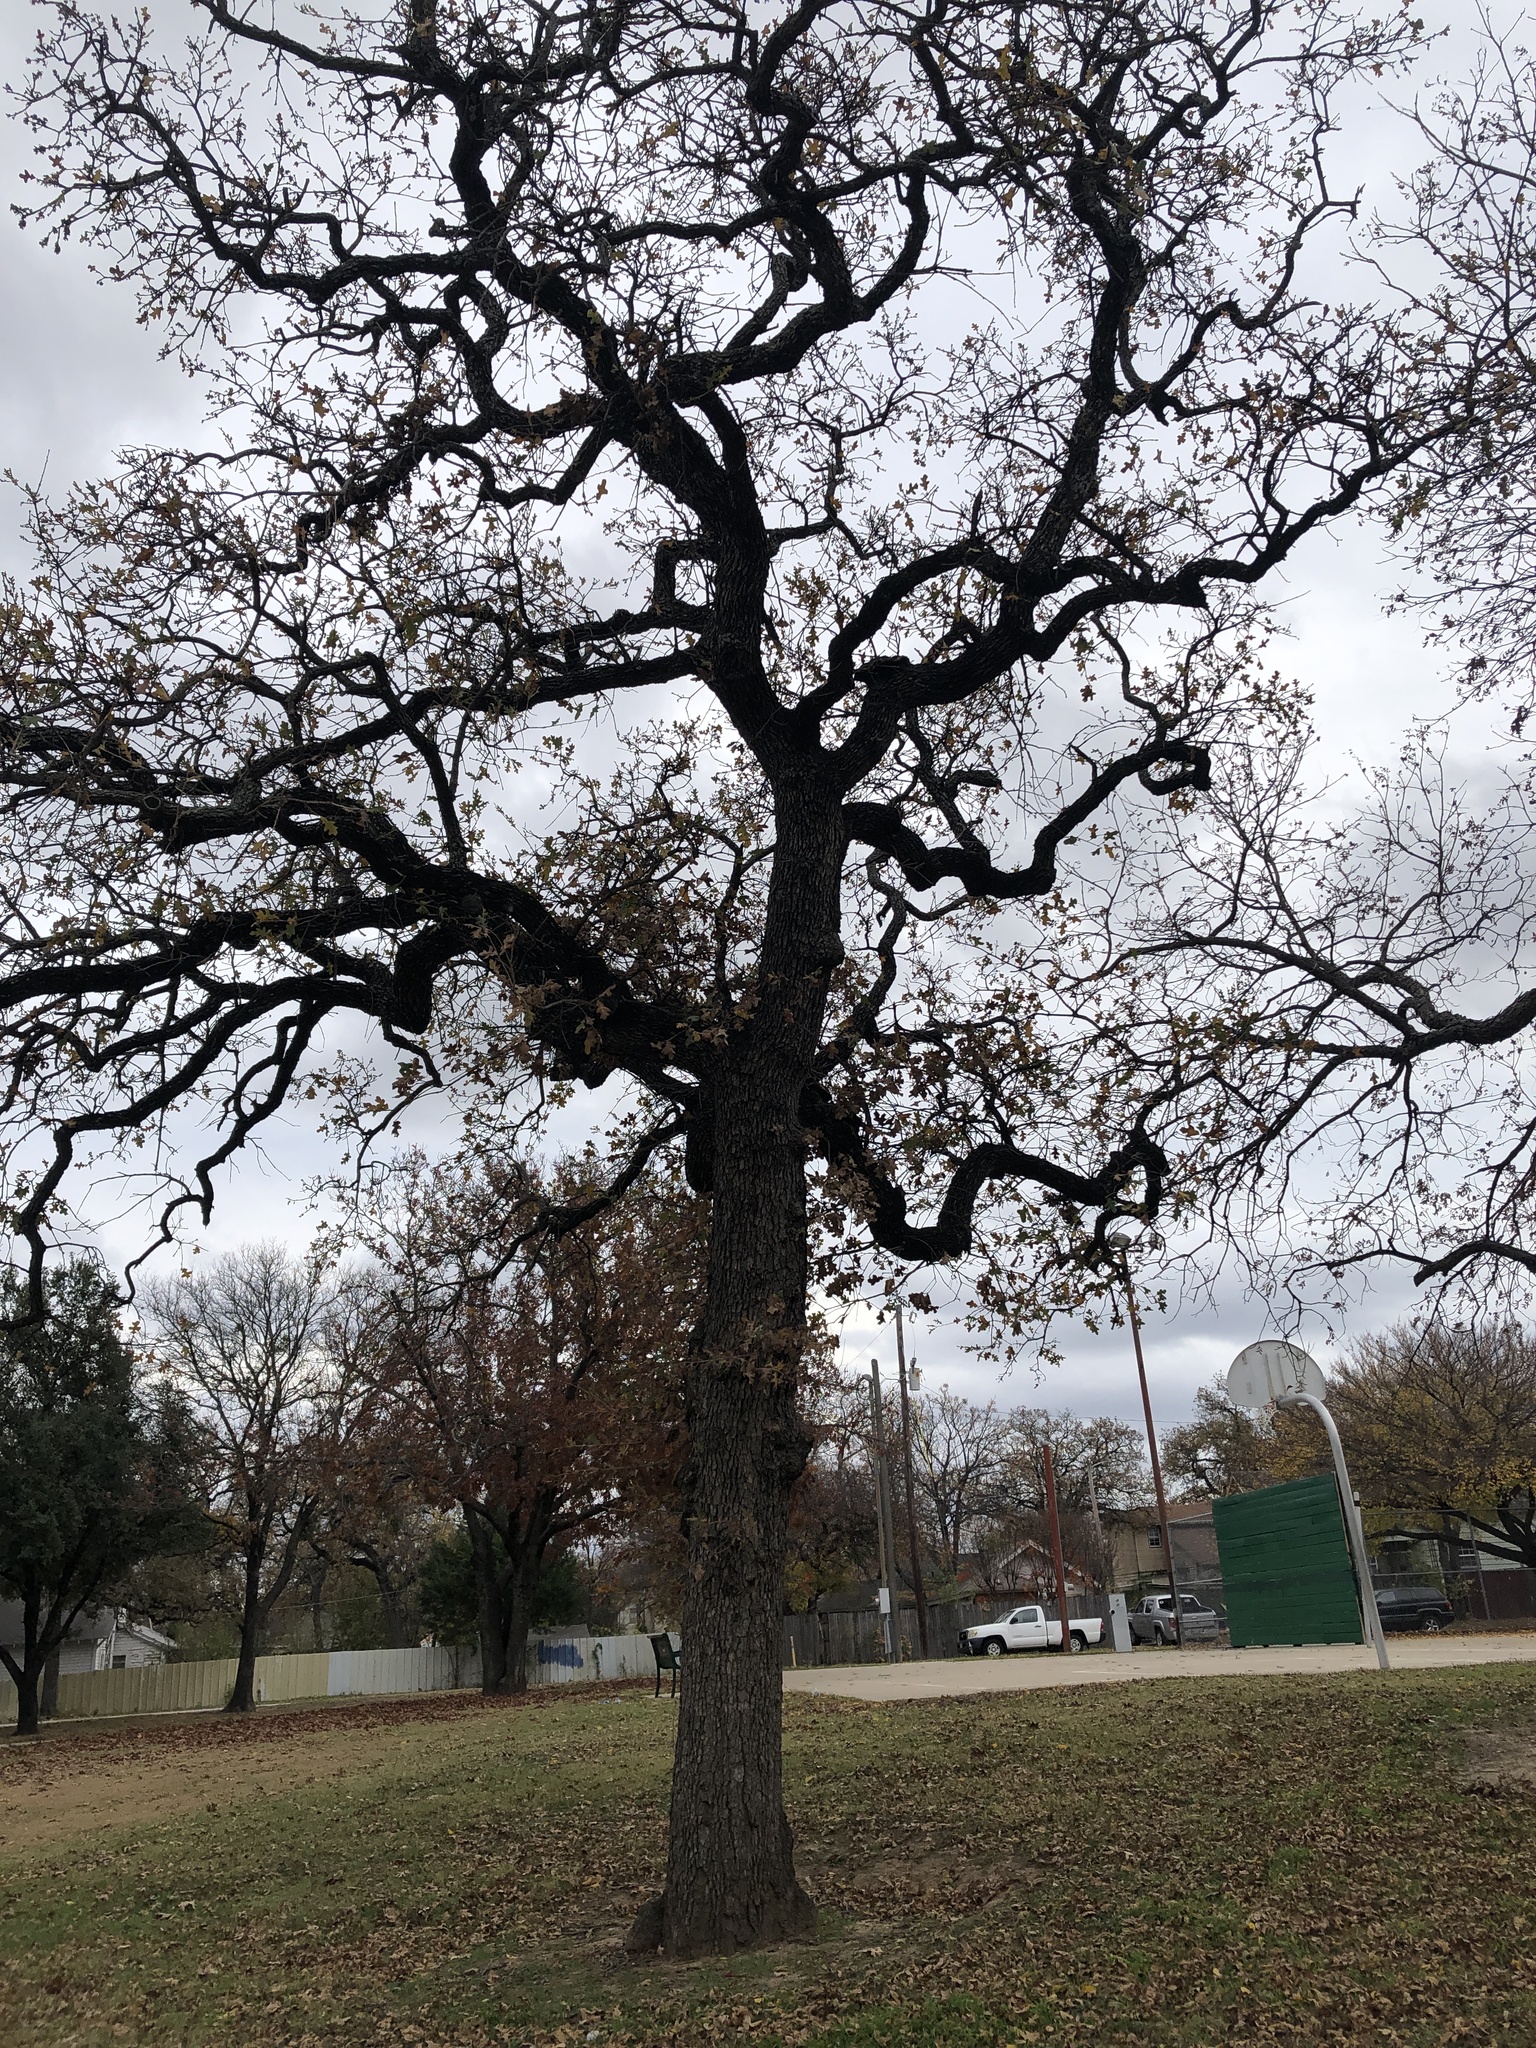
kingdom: Plantae
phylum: Tracheophyta
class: Magnoliopsida
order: Fagales
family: Fagaceae
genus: Quercus
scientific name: Quercus stellata
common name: Post oak
